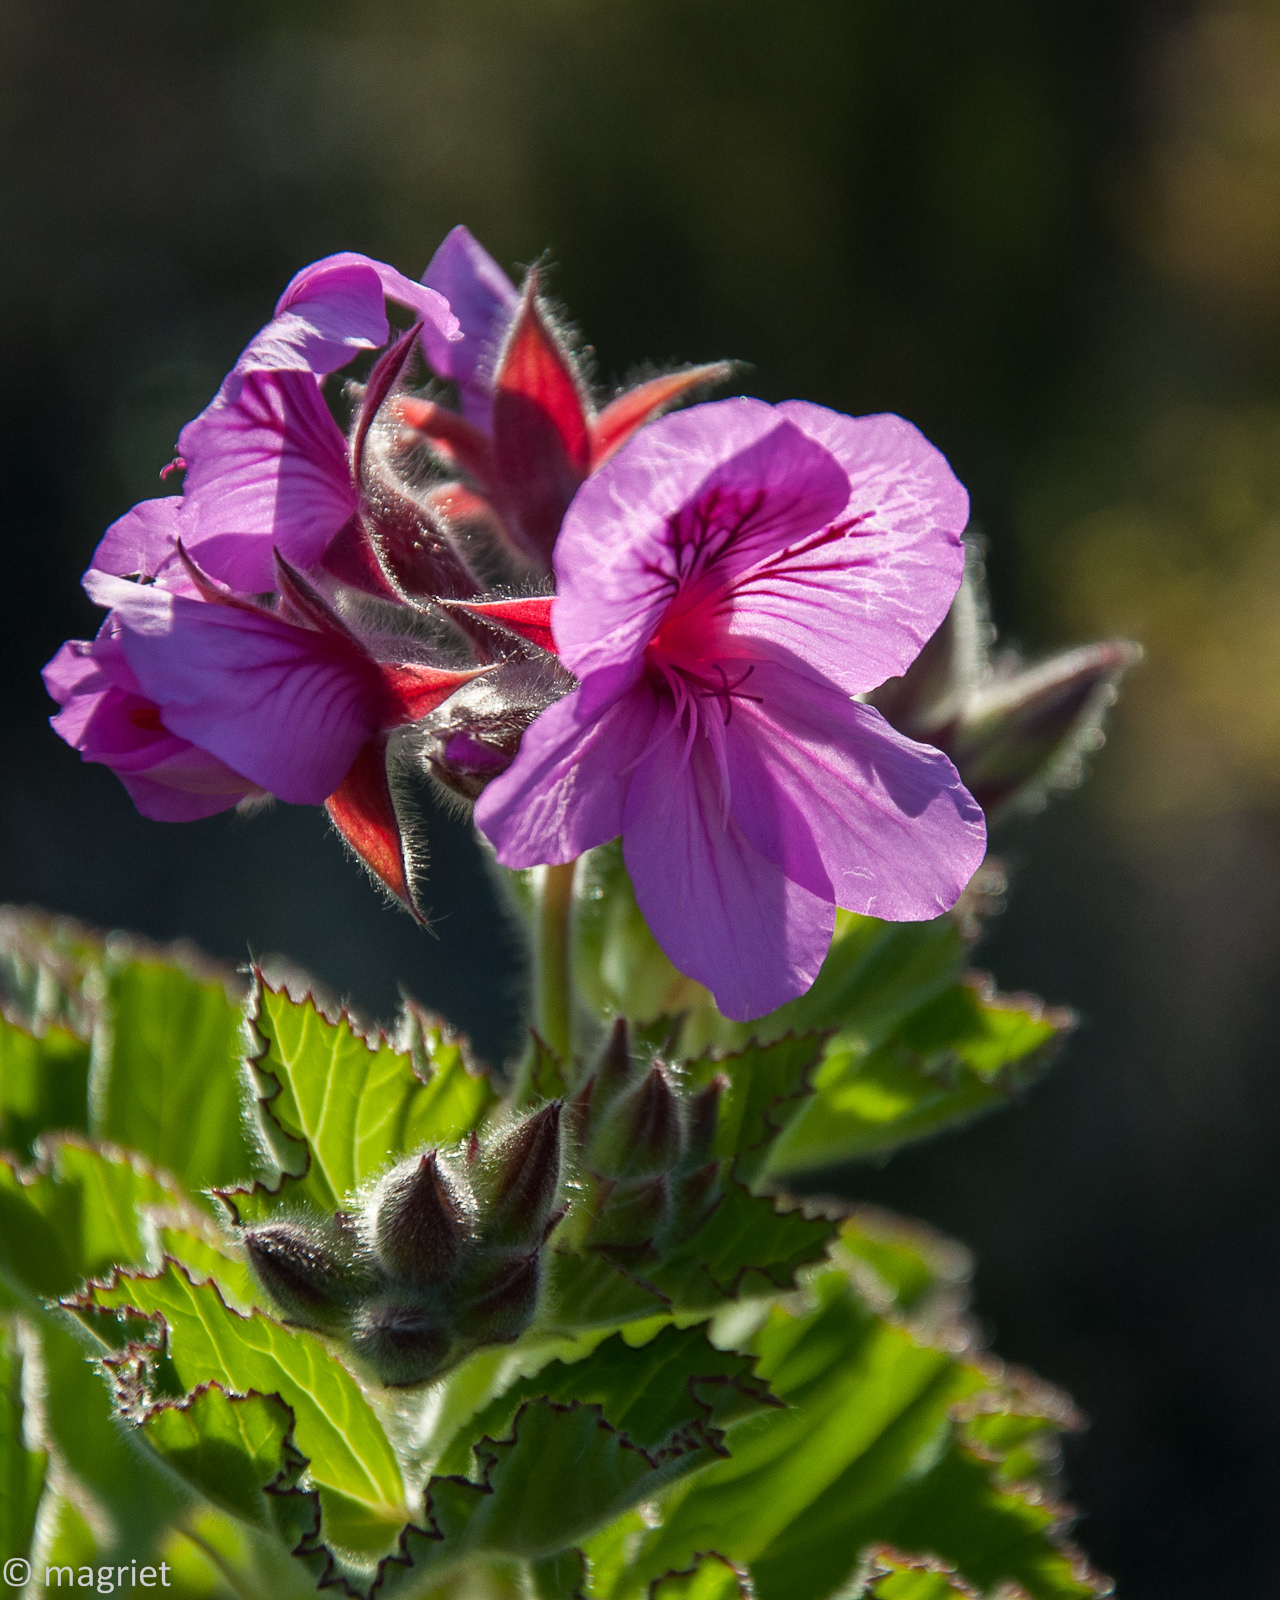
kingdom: Plantae
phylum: Tracheophyta
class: Magnoliopsida
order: Geraniales
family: Geraniaceae
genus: Pelargonium
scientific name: Pelargonium cucullatum
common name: Tree pelargonium
